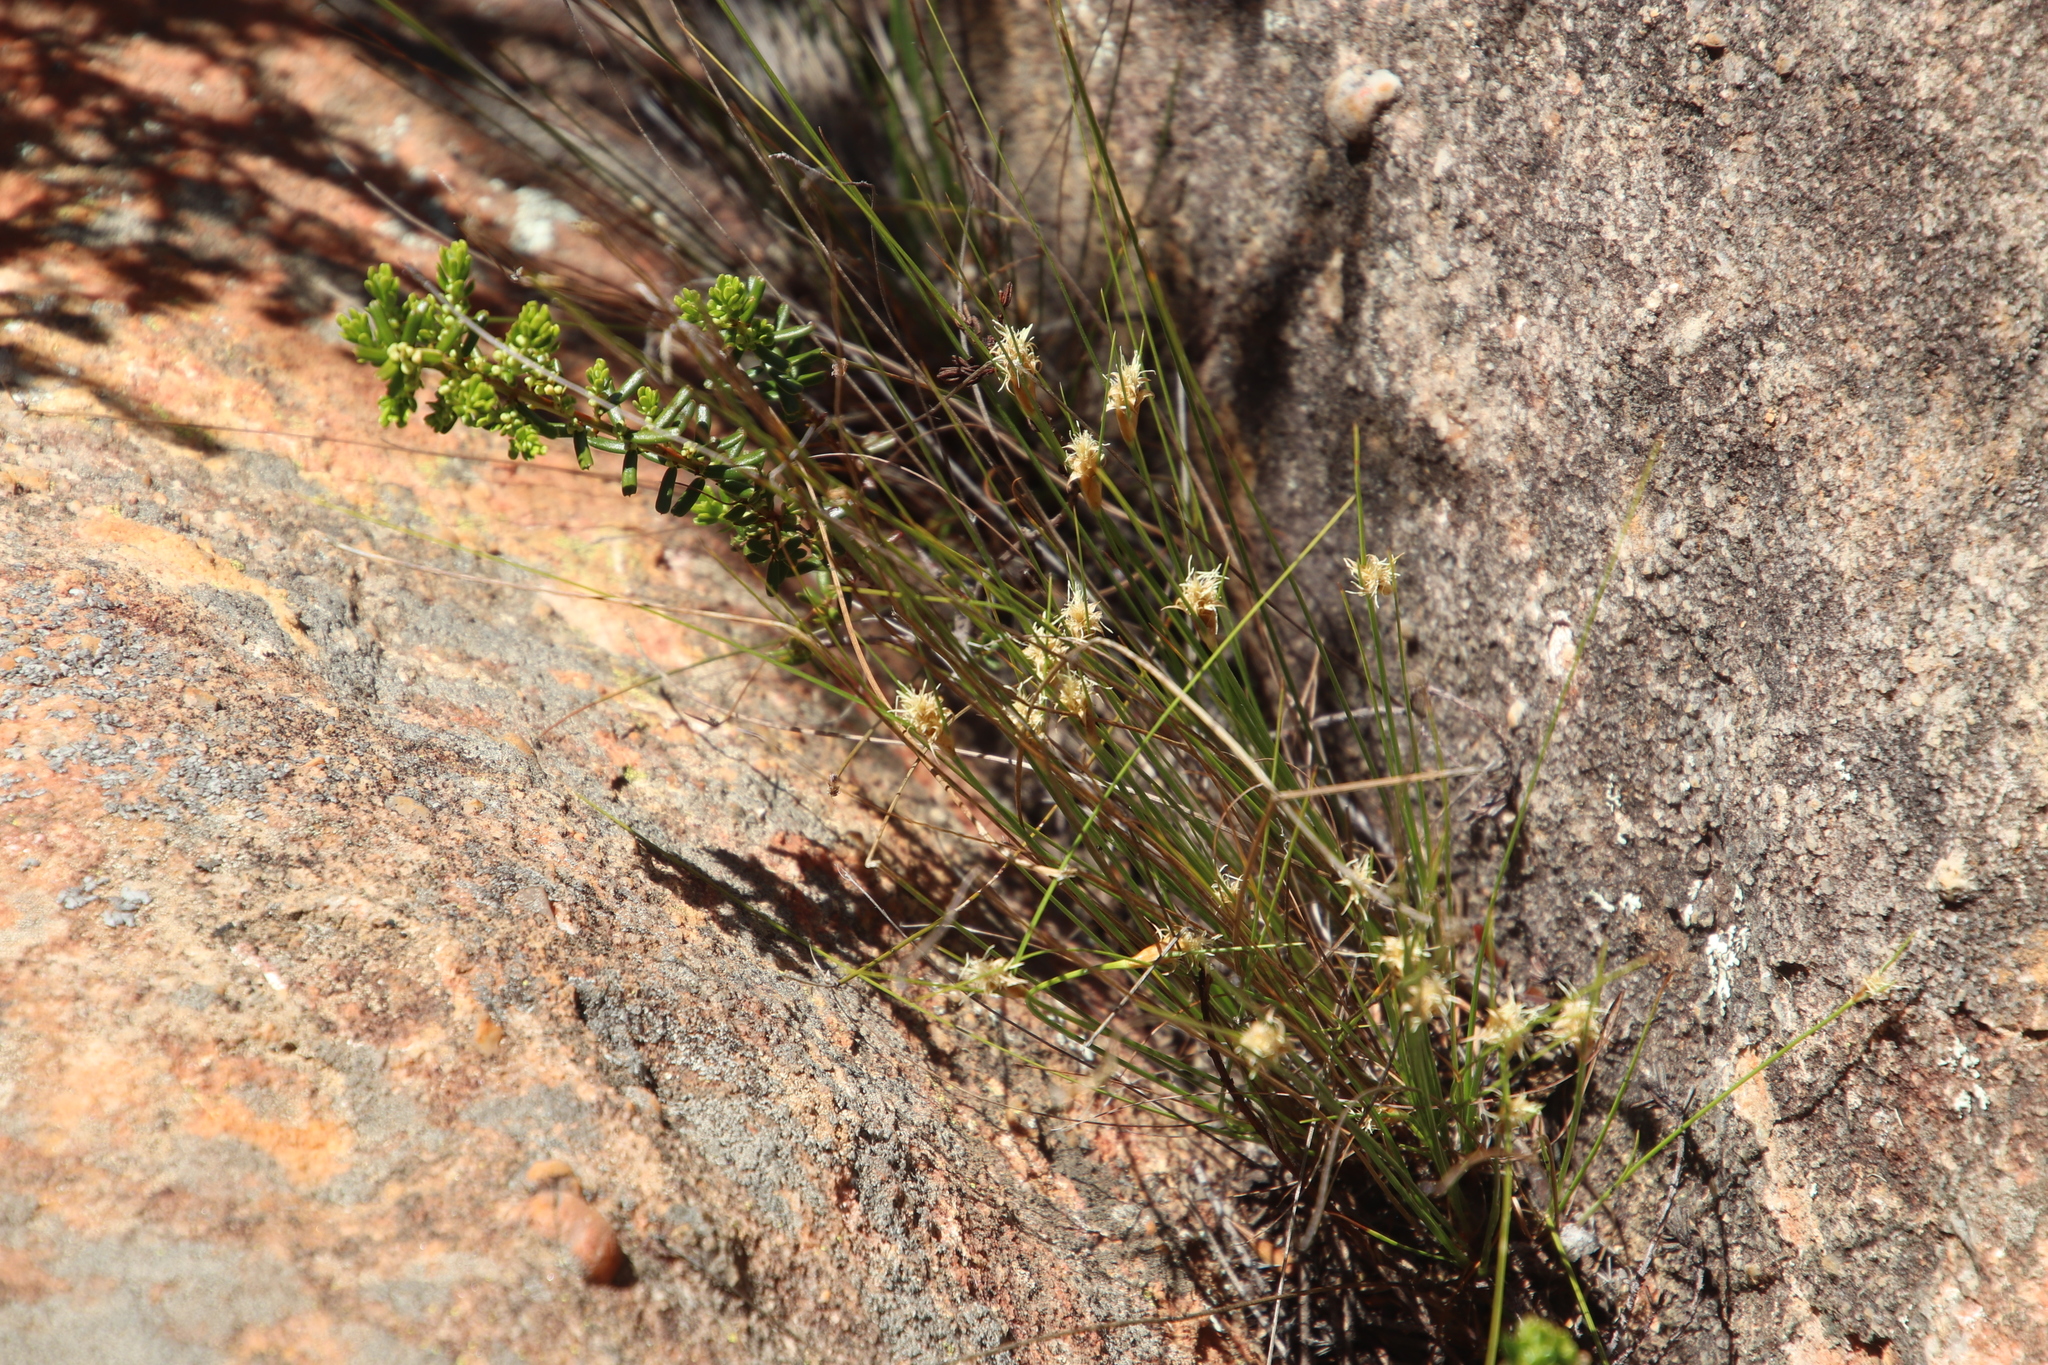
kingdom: Plantae
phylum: Tracheophyta
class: Liliopsida
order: Poales
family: Cyperaceae
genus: Ficinia
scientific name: Ficinia nigrescens
